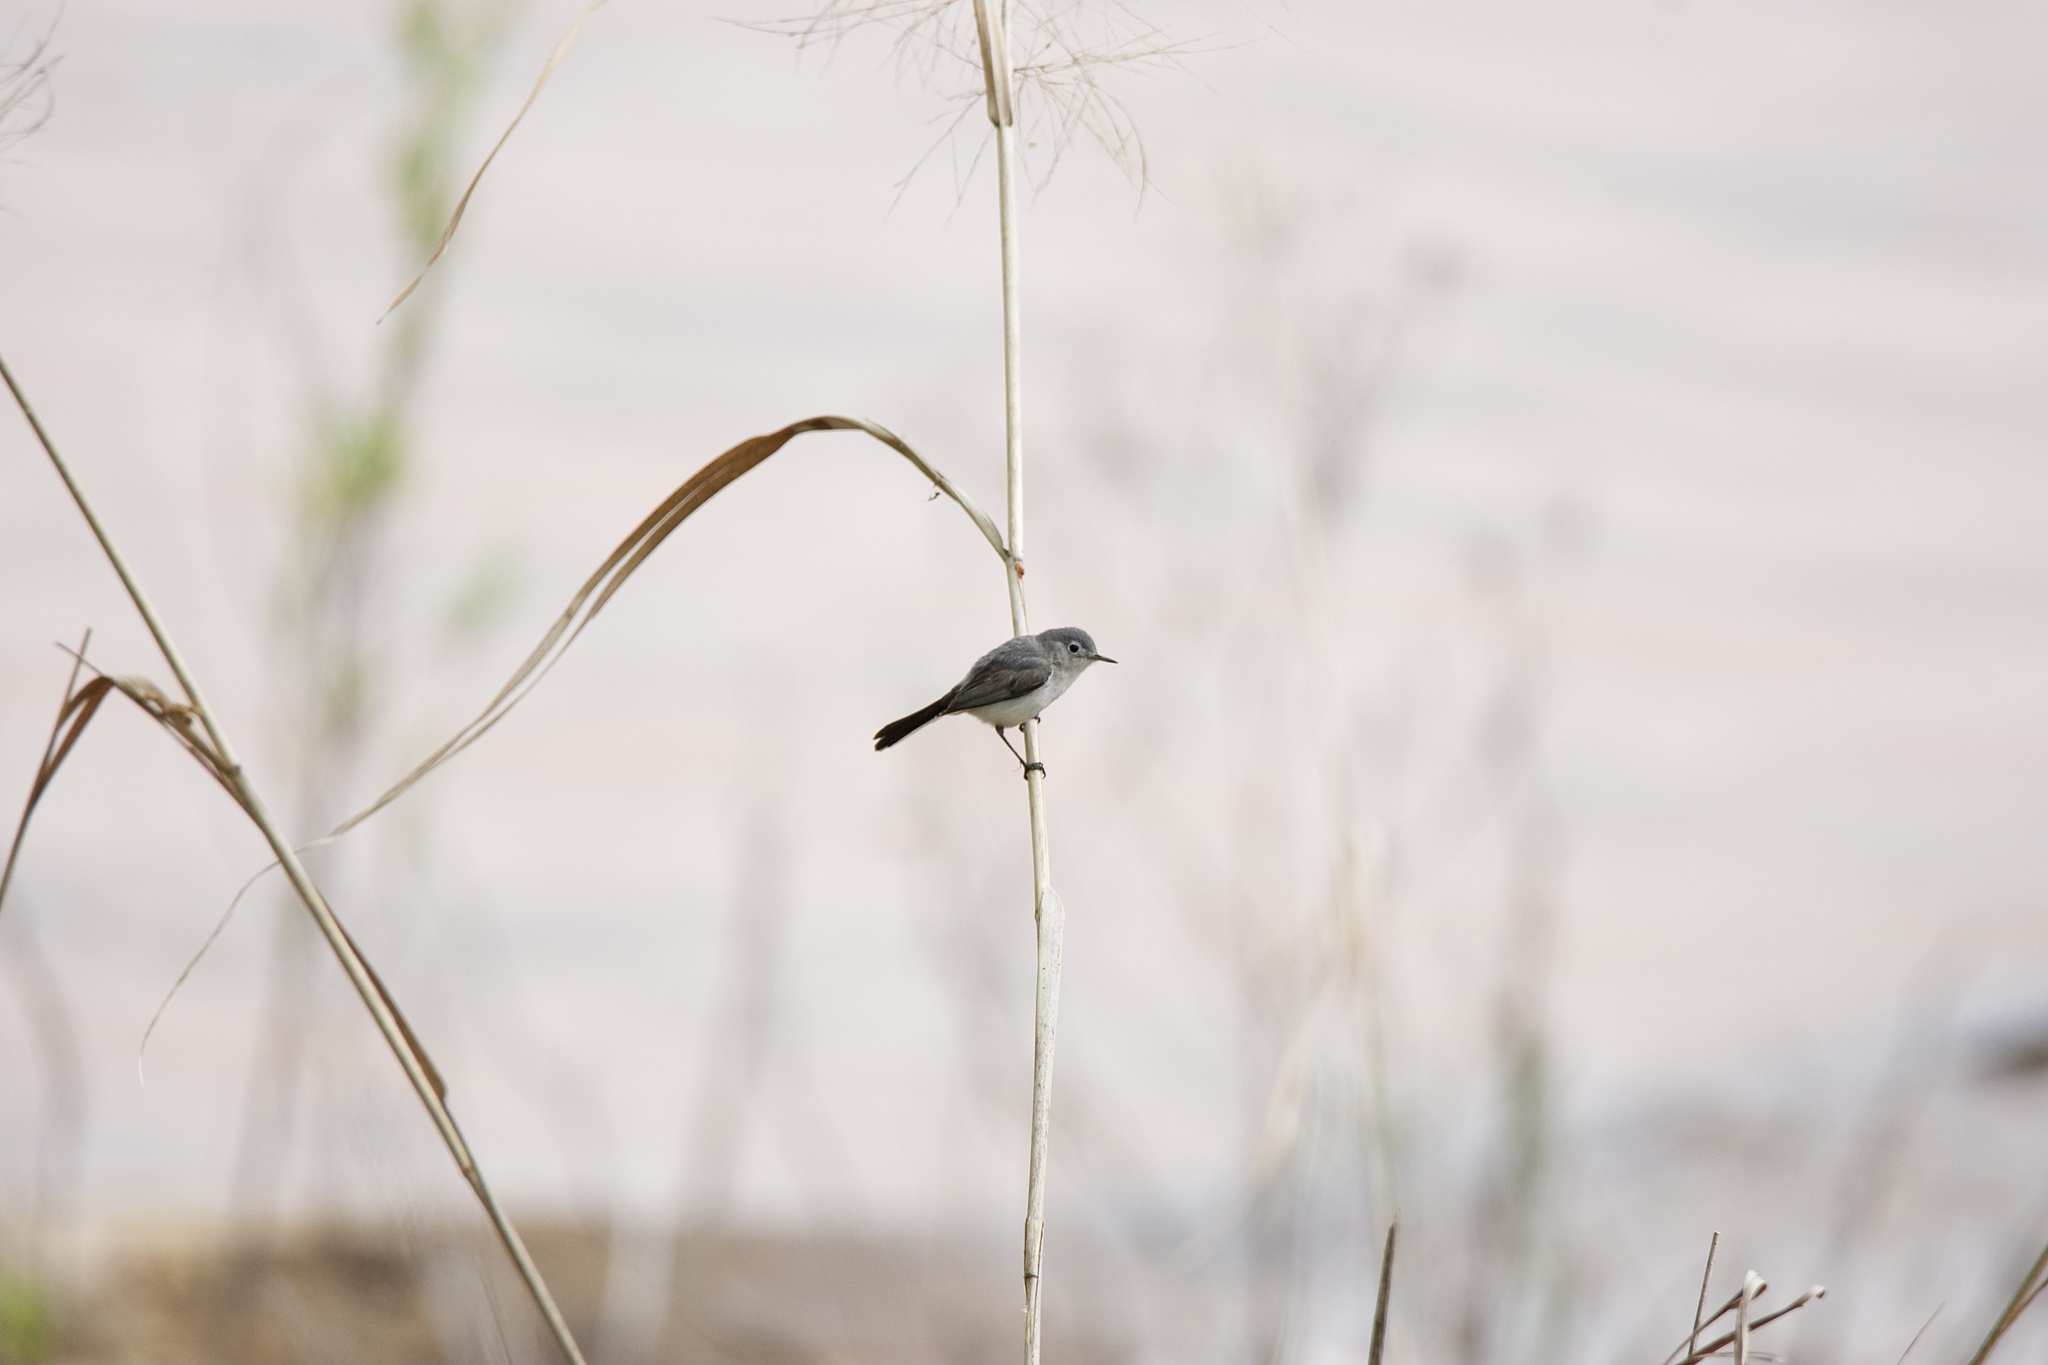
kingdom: Animalia
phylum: Chordata
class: Aves
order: Passeriformes
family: Polioptilidae
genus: Polioptila
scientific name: Polioptila caerulea
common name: Blue-gray gnatcatcher
